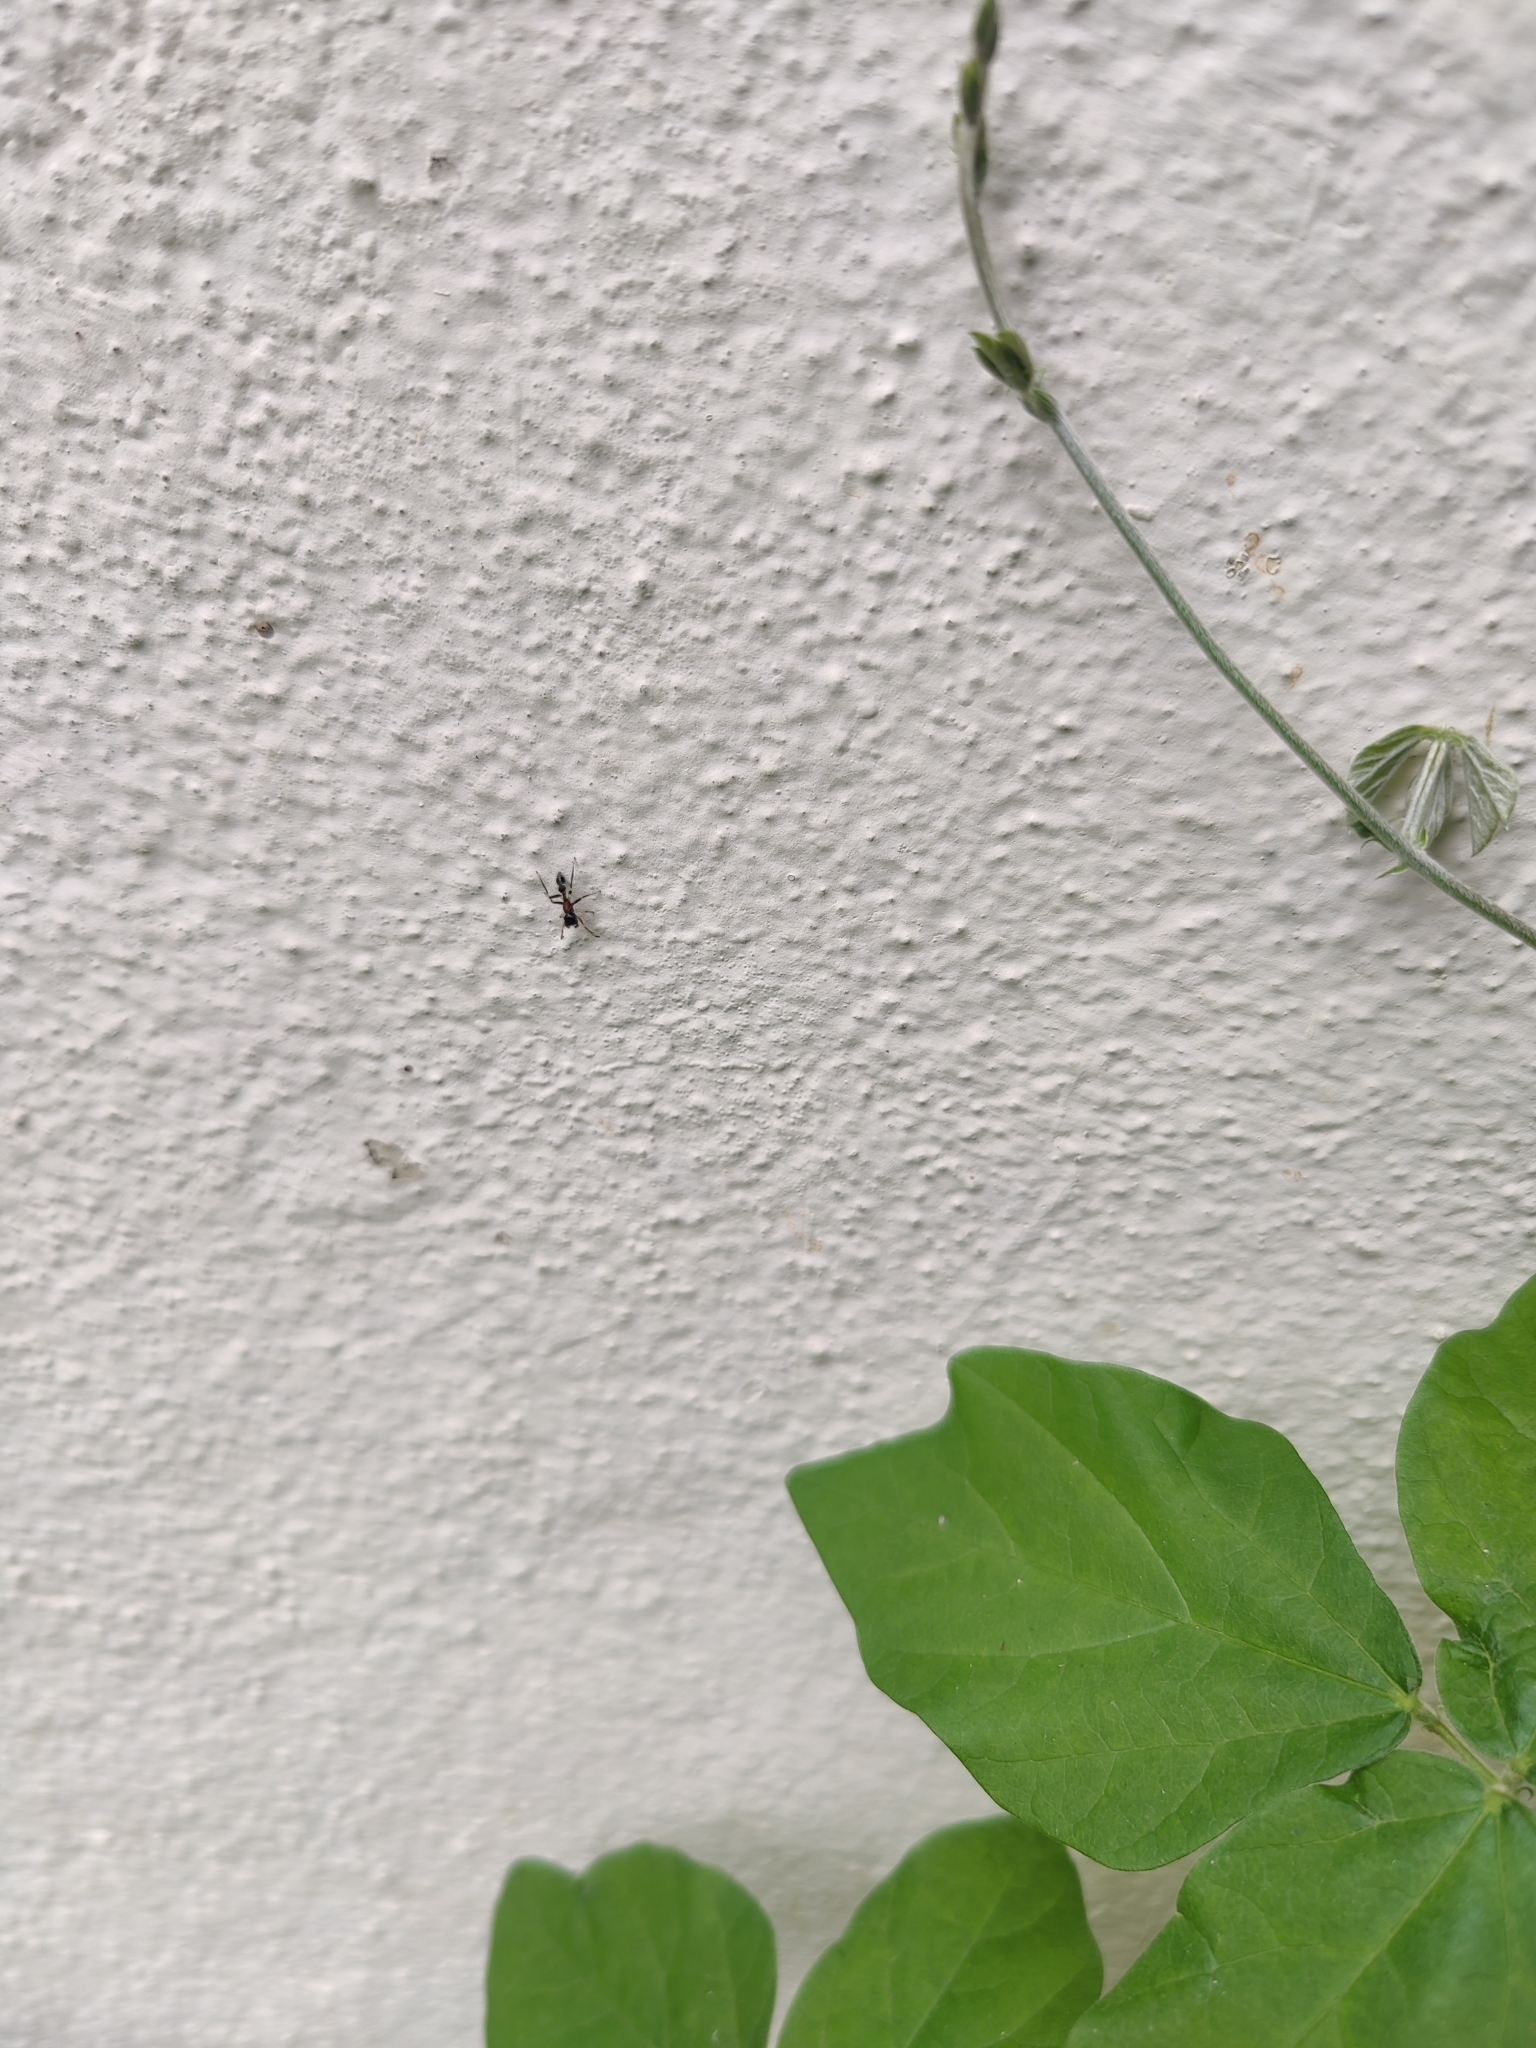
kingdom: Animalia
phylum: Arthropoda
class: Arachnida
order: Araneae
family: Salticidae
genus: Myrmarachne
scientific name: Myrmarachne melanocephala
